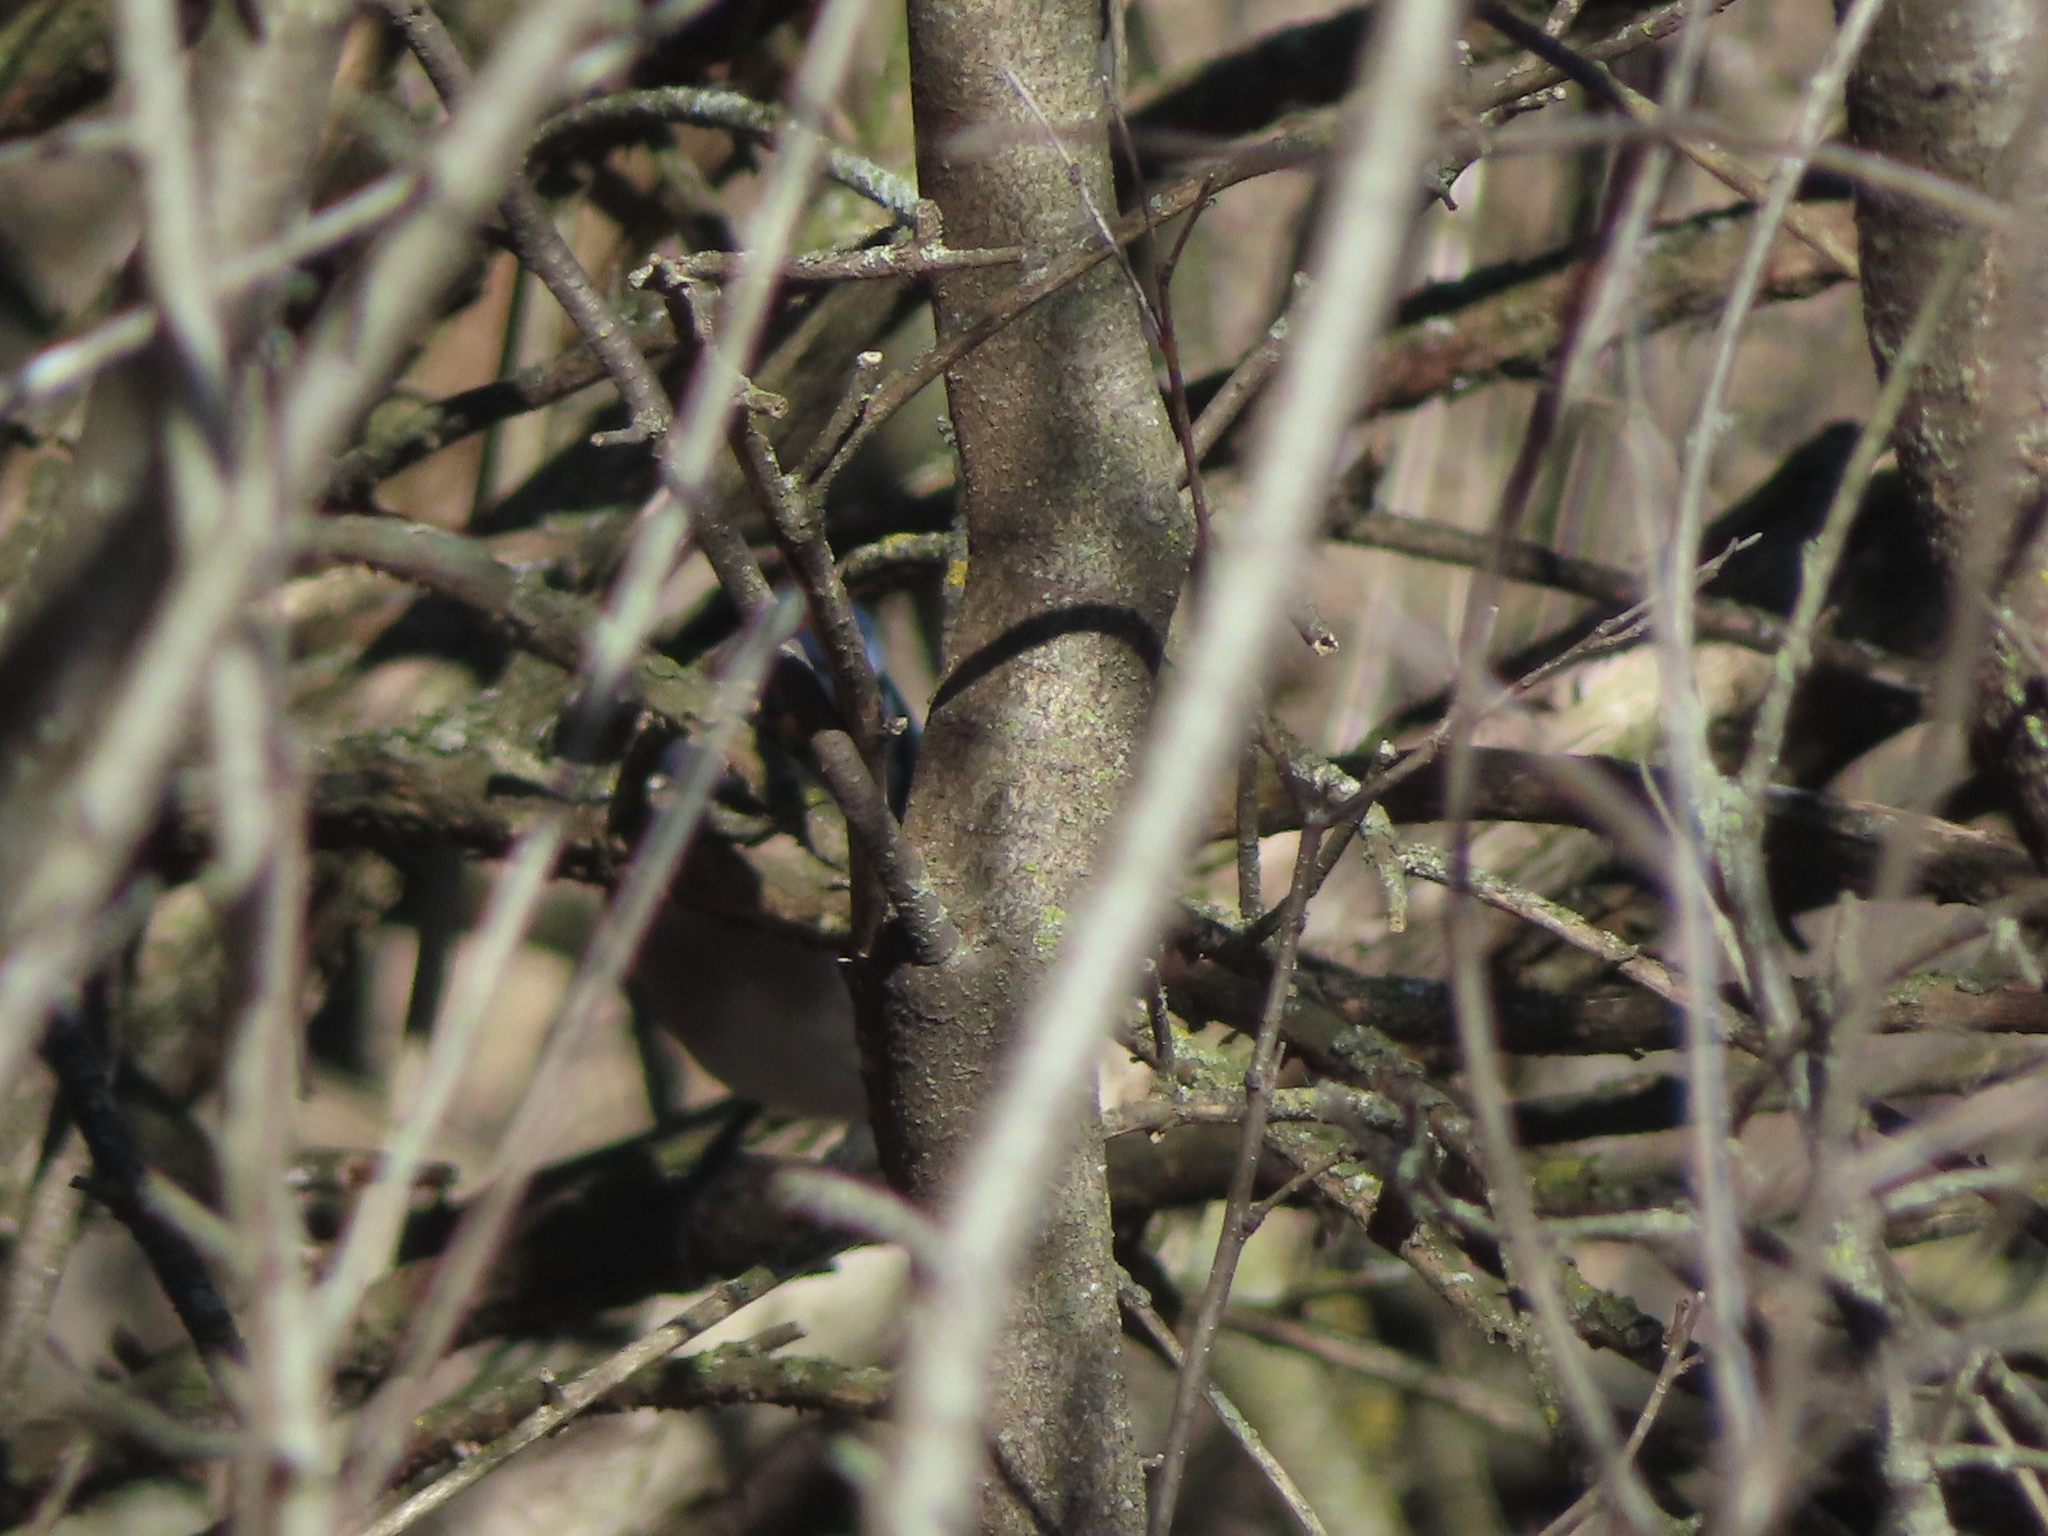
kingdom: Animalia
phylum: Chordata
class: Aves
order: Passeriformes
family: Corvidae
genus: Cyanocitta
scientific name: Cyanocitta cristata
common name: Blue jay
